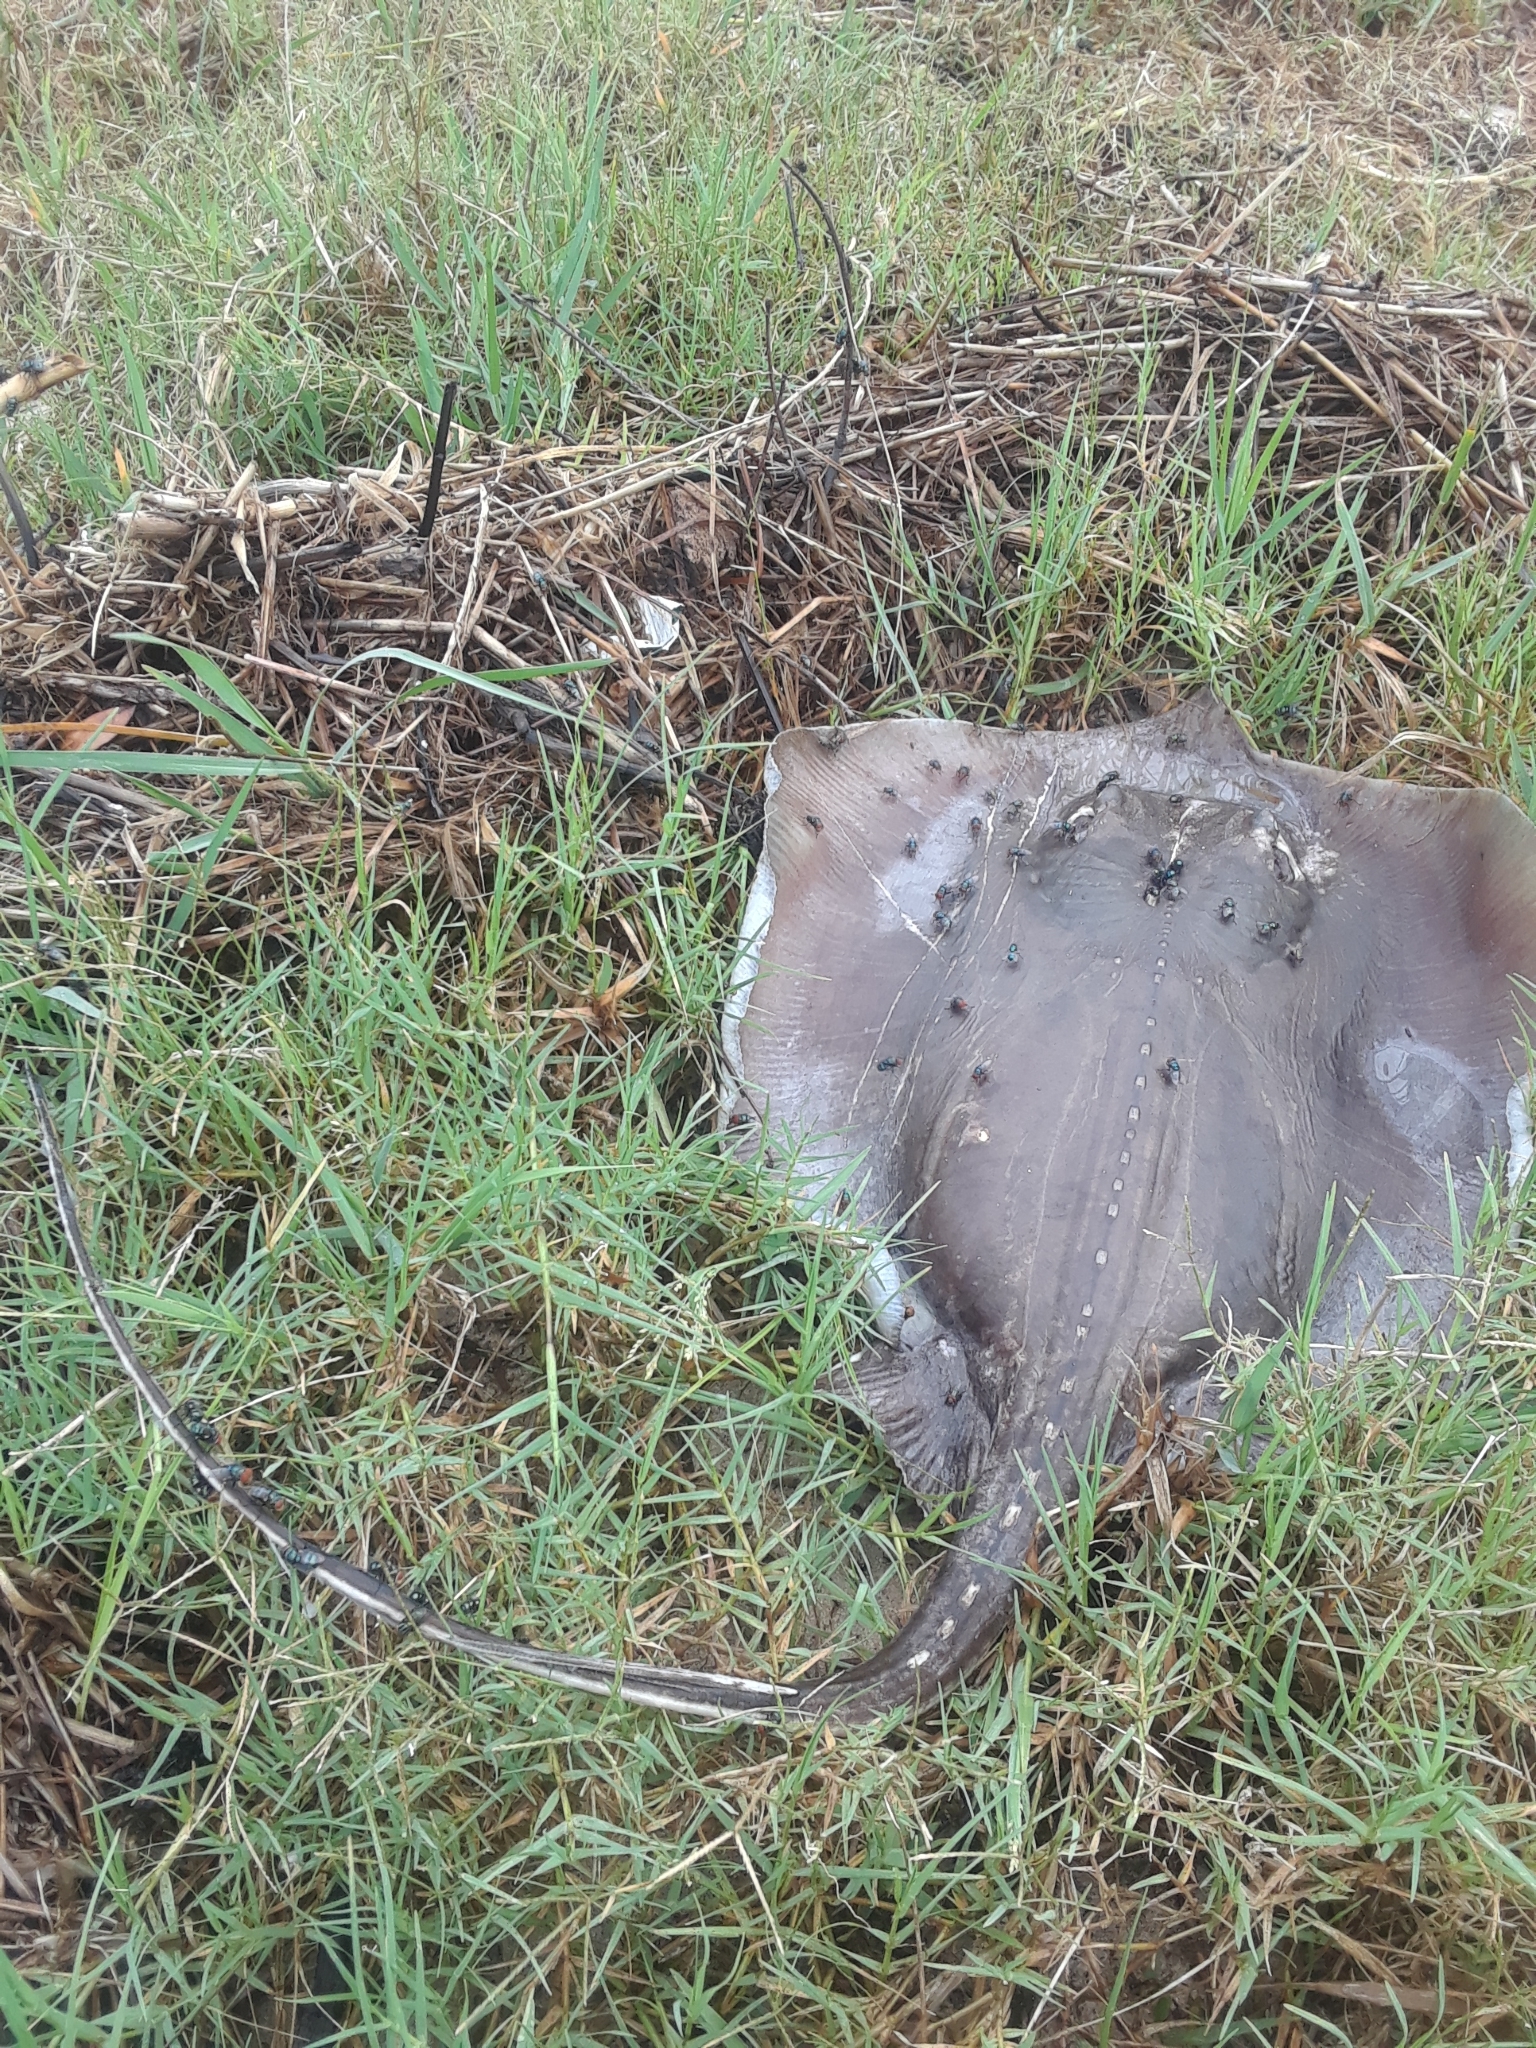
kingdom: Animalia
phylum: Chordata
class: Elasmobranchii
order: Myliobatiformes
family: Dasyatidae
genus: Hypanus
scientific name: Hypanus sabinus
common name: Atlantic stingray
